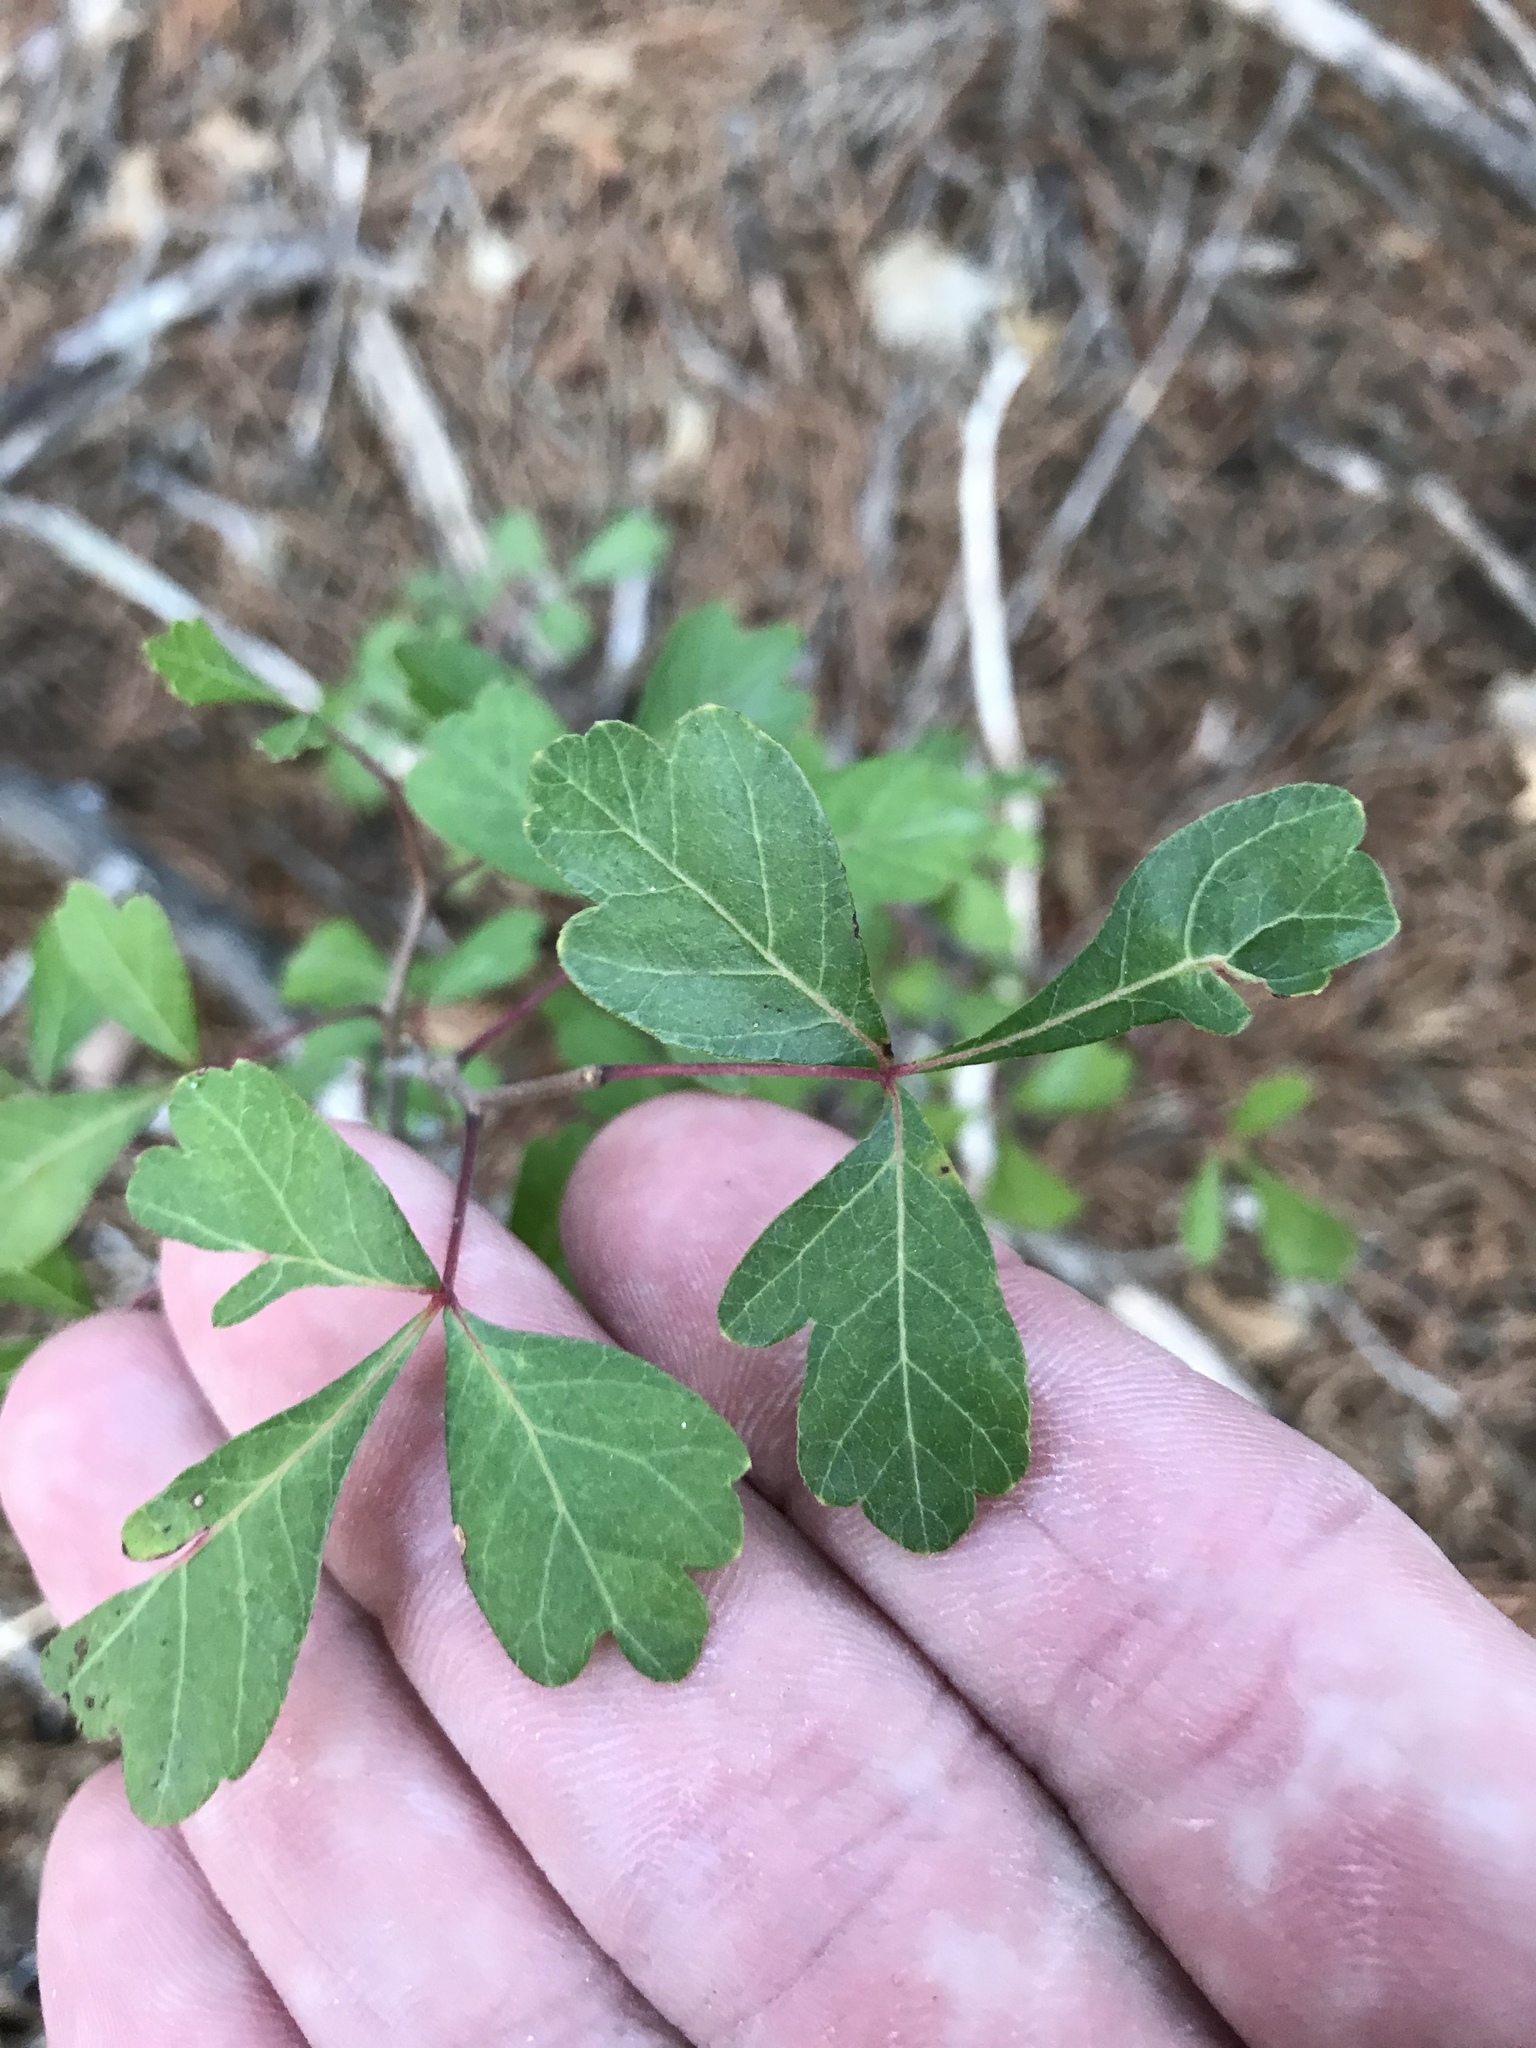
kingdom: Plantae
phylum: Tracheophyta
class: Magnoliopsida
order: Sapindales
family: Anacardiaceae
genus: Rhus
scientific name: Rhus aromatica
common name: Aromatic sumac
